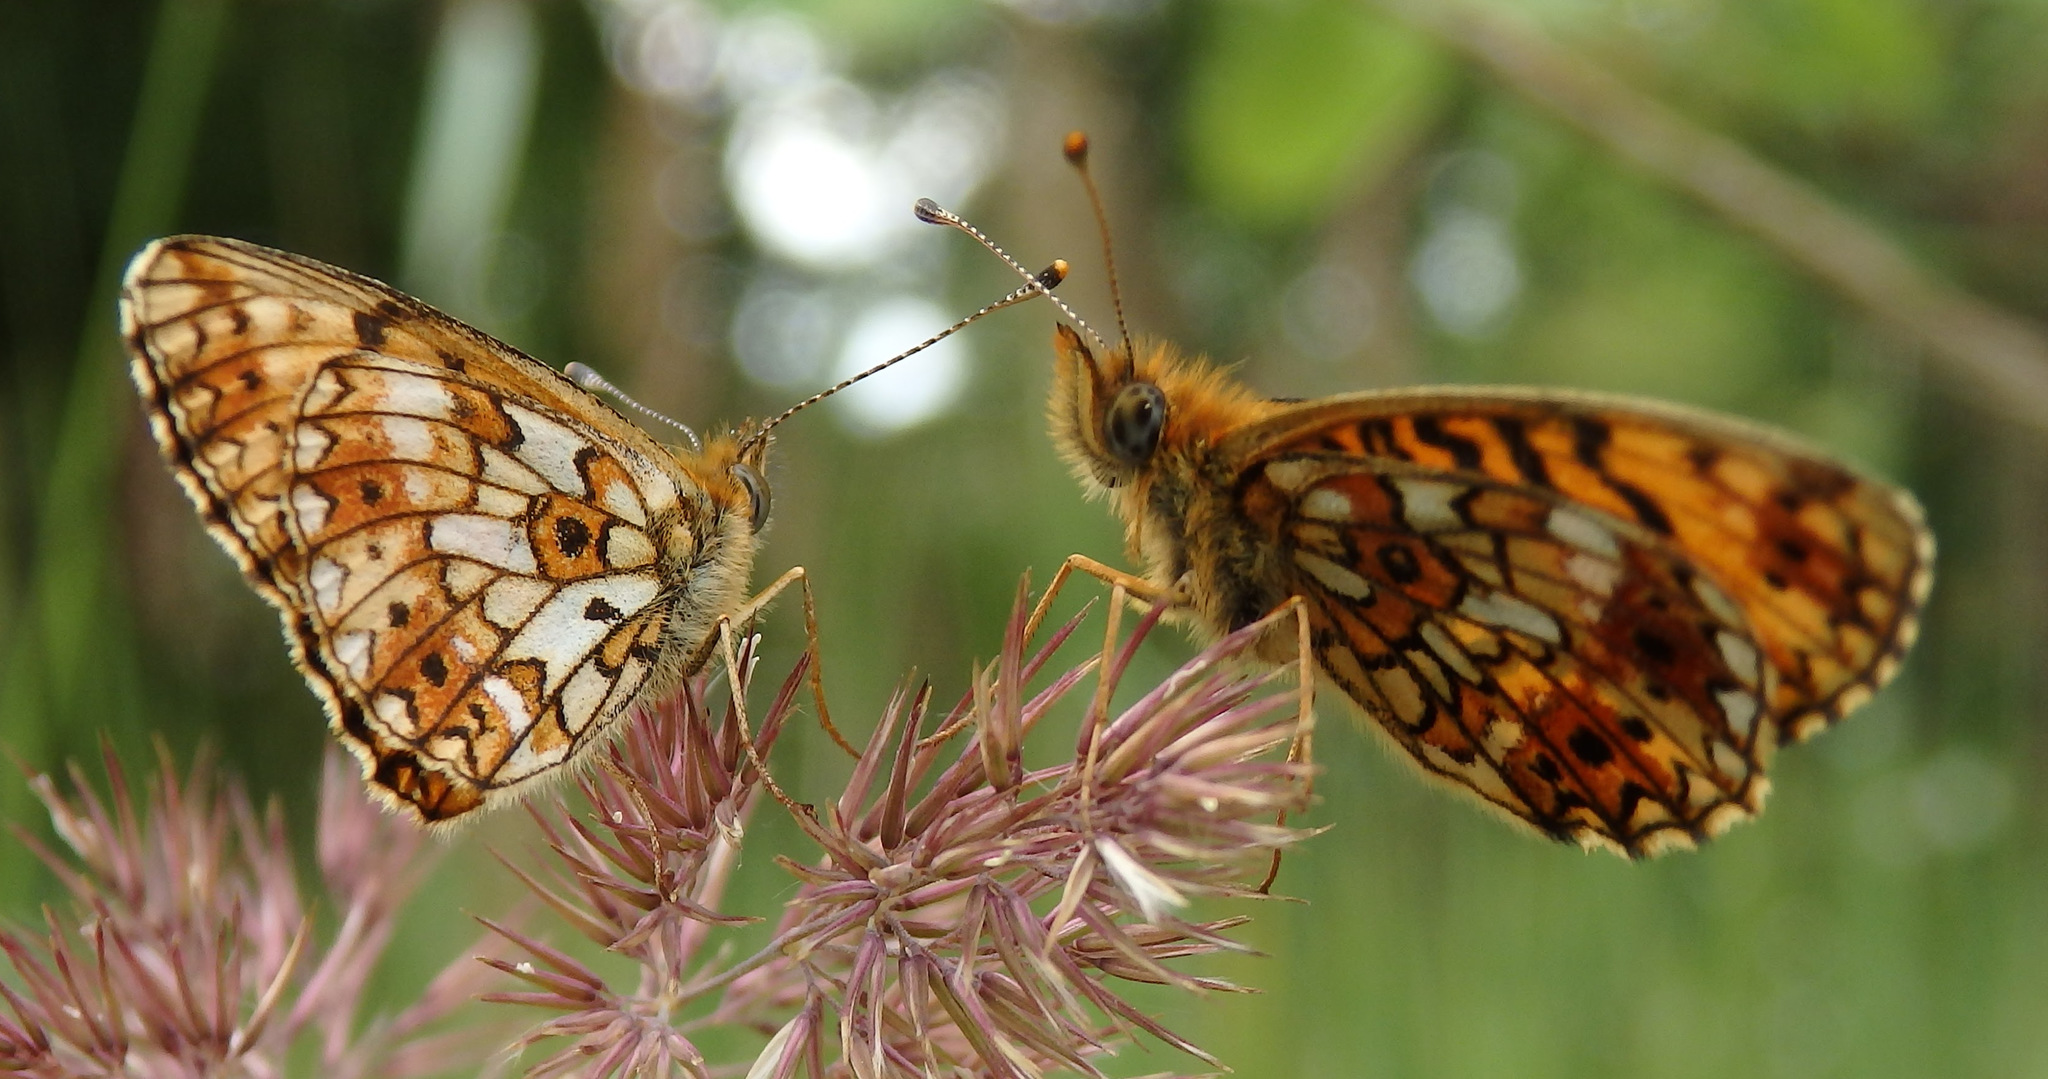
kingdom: Animalia
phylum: Arthropoda
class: Insecta
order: Lepidoptera
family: Nymphalidae
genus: Boloria
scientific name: Boloria selene
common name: Small pearl-bordered fritillary
